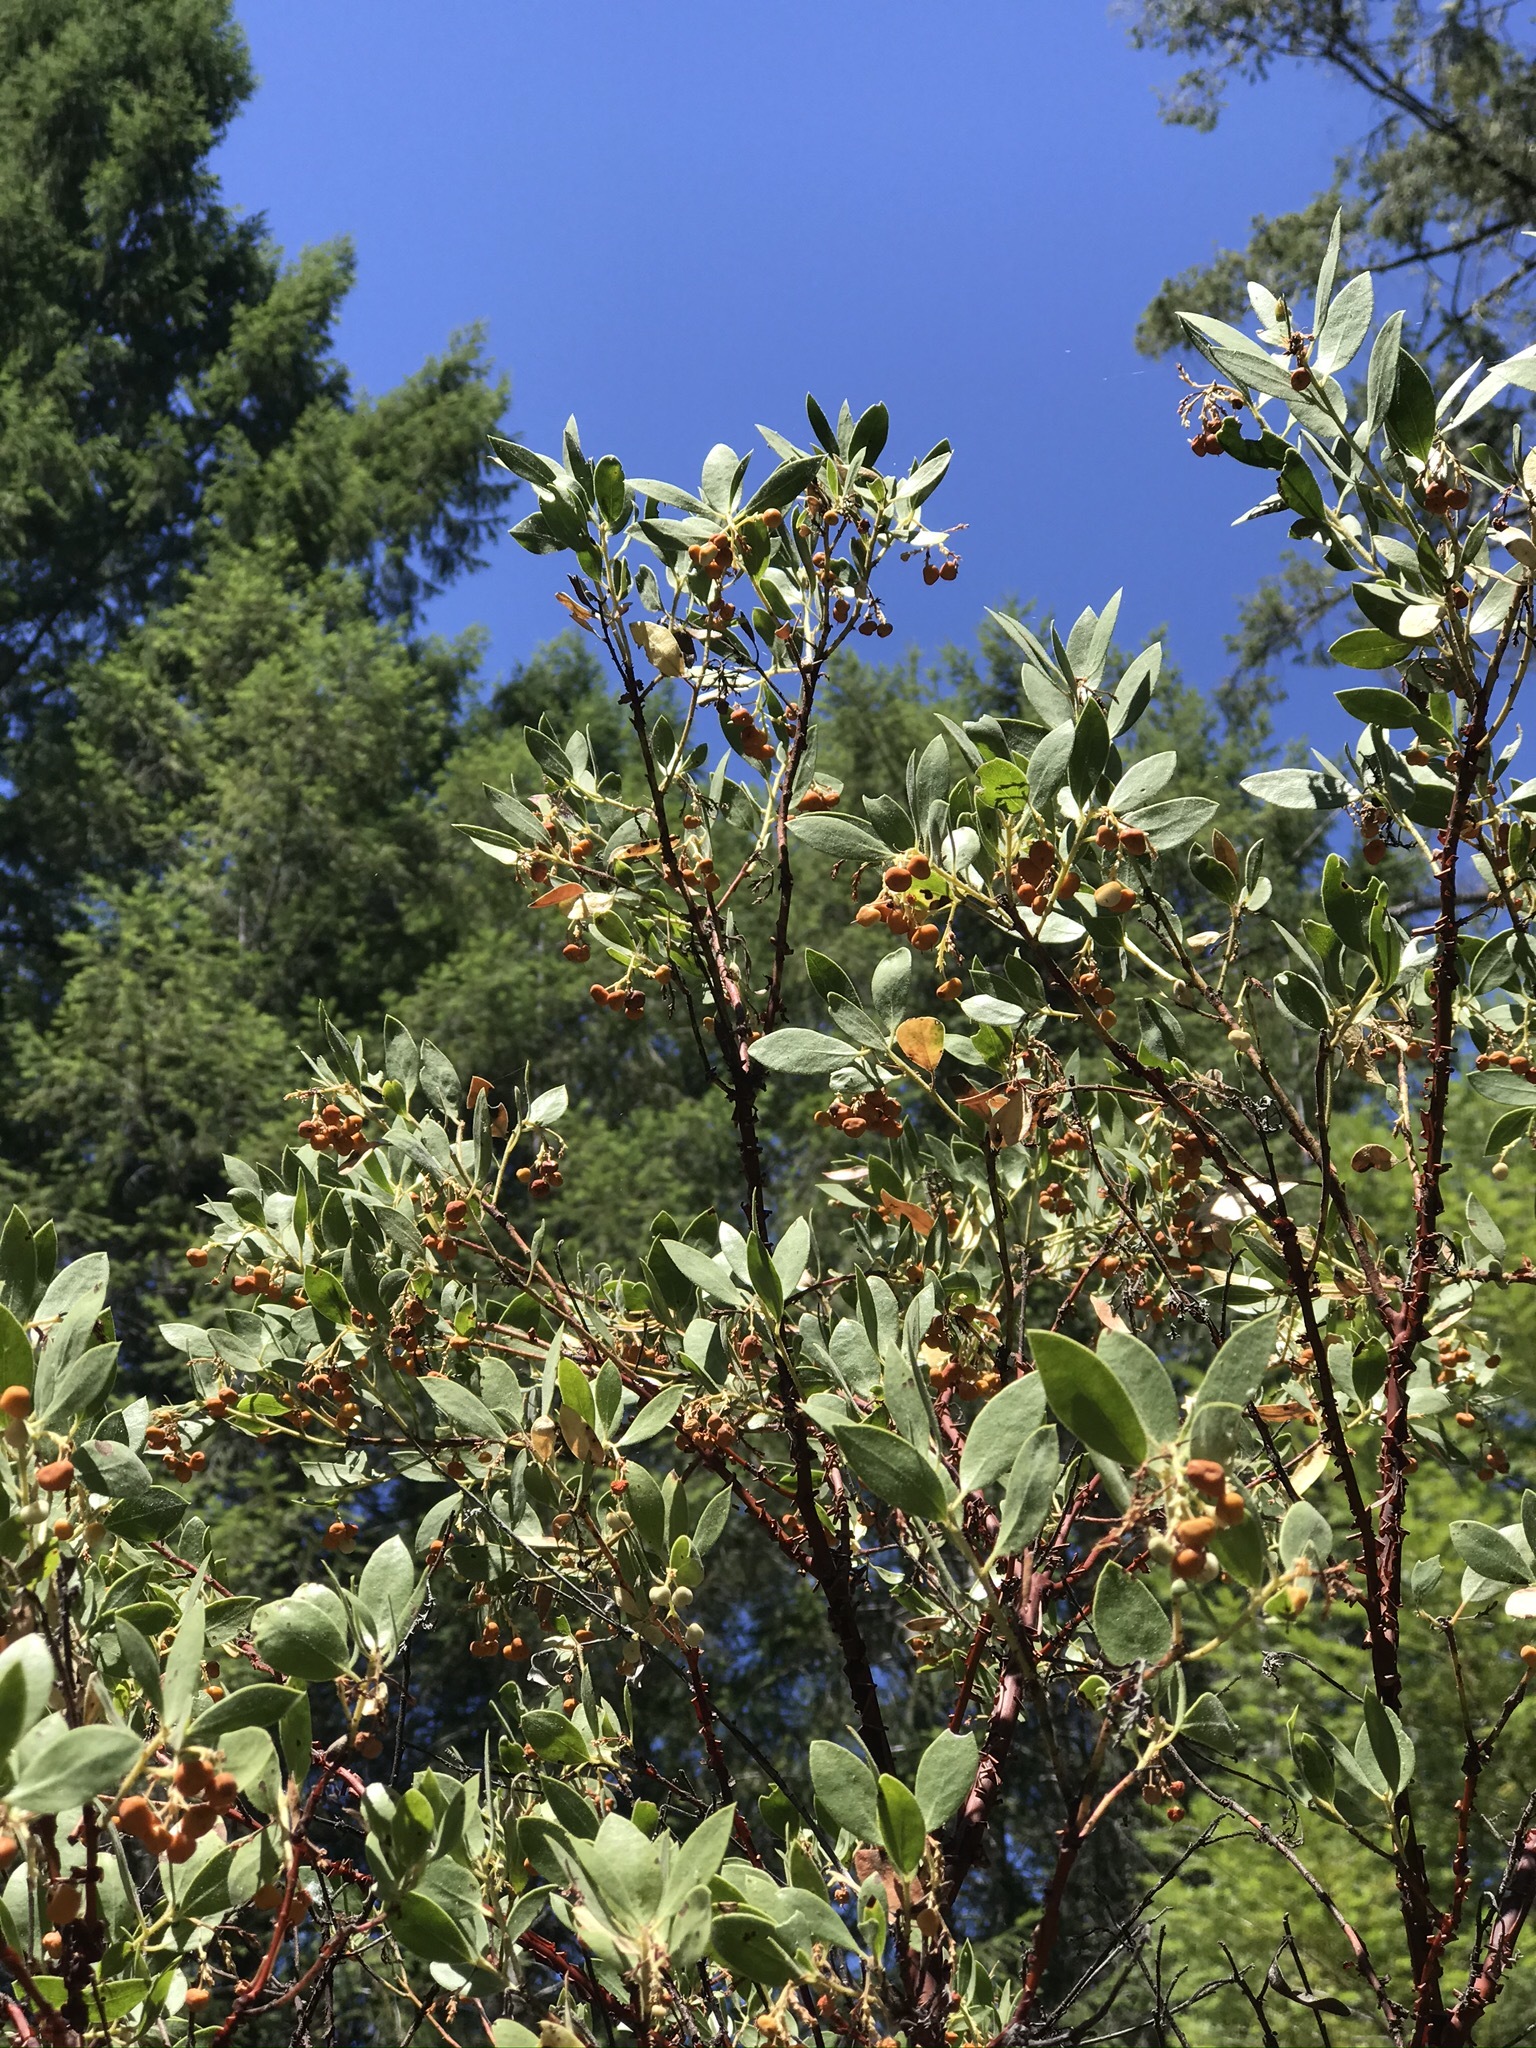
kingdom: Plantae
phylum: Tracheophyta
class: Magnoliopsida
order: Ericales
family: Ericaceae
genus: Arctostaphylos
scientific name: Arctostaphylos hispidula
